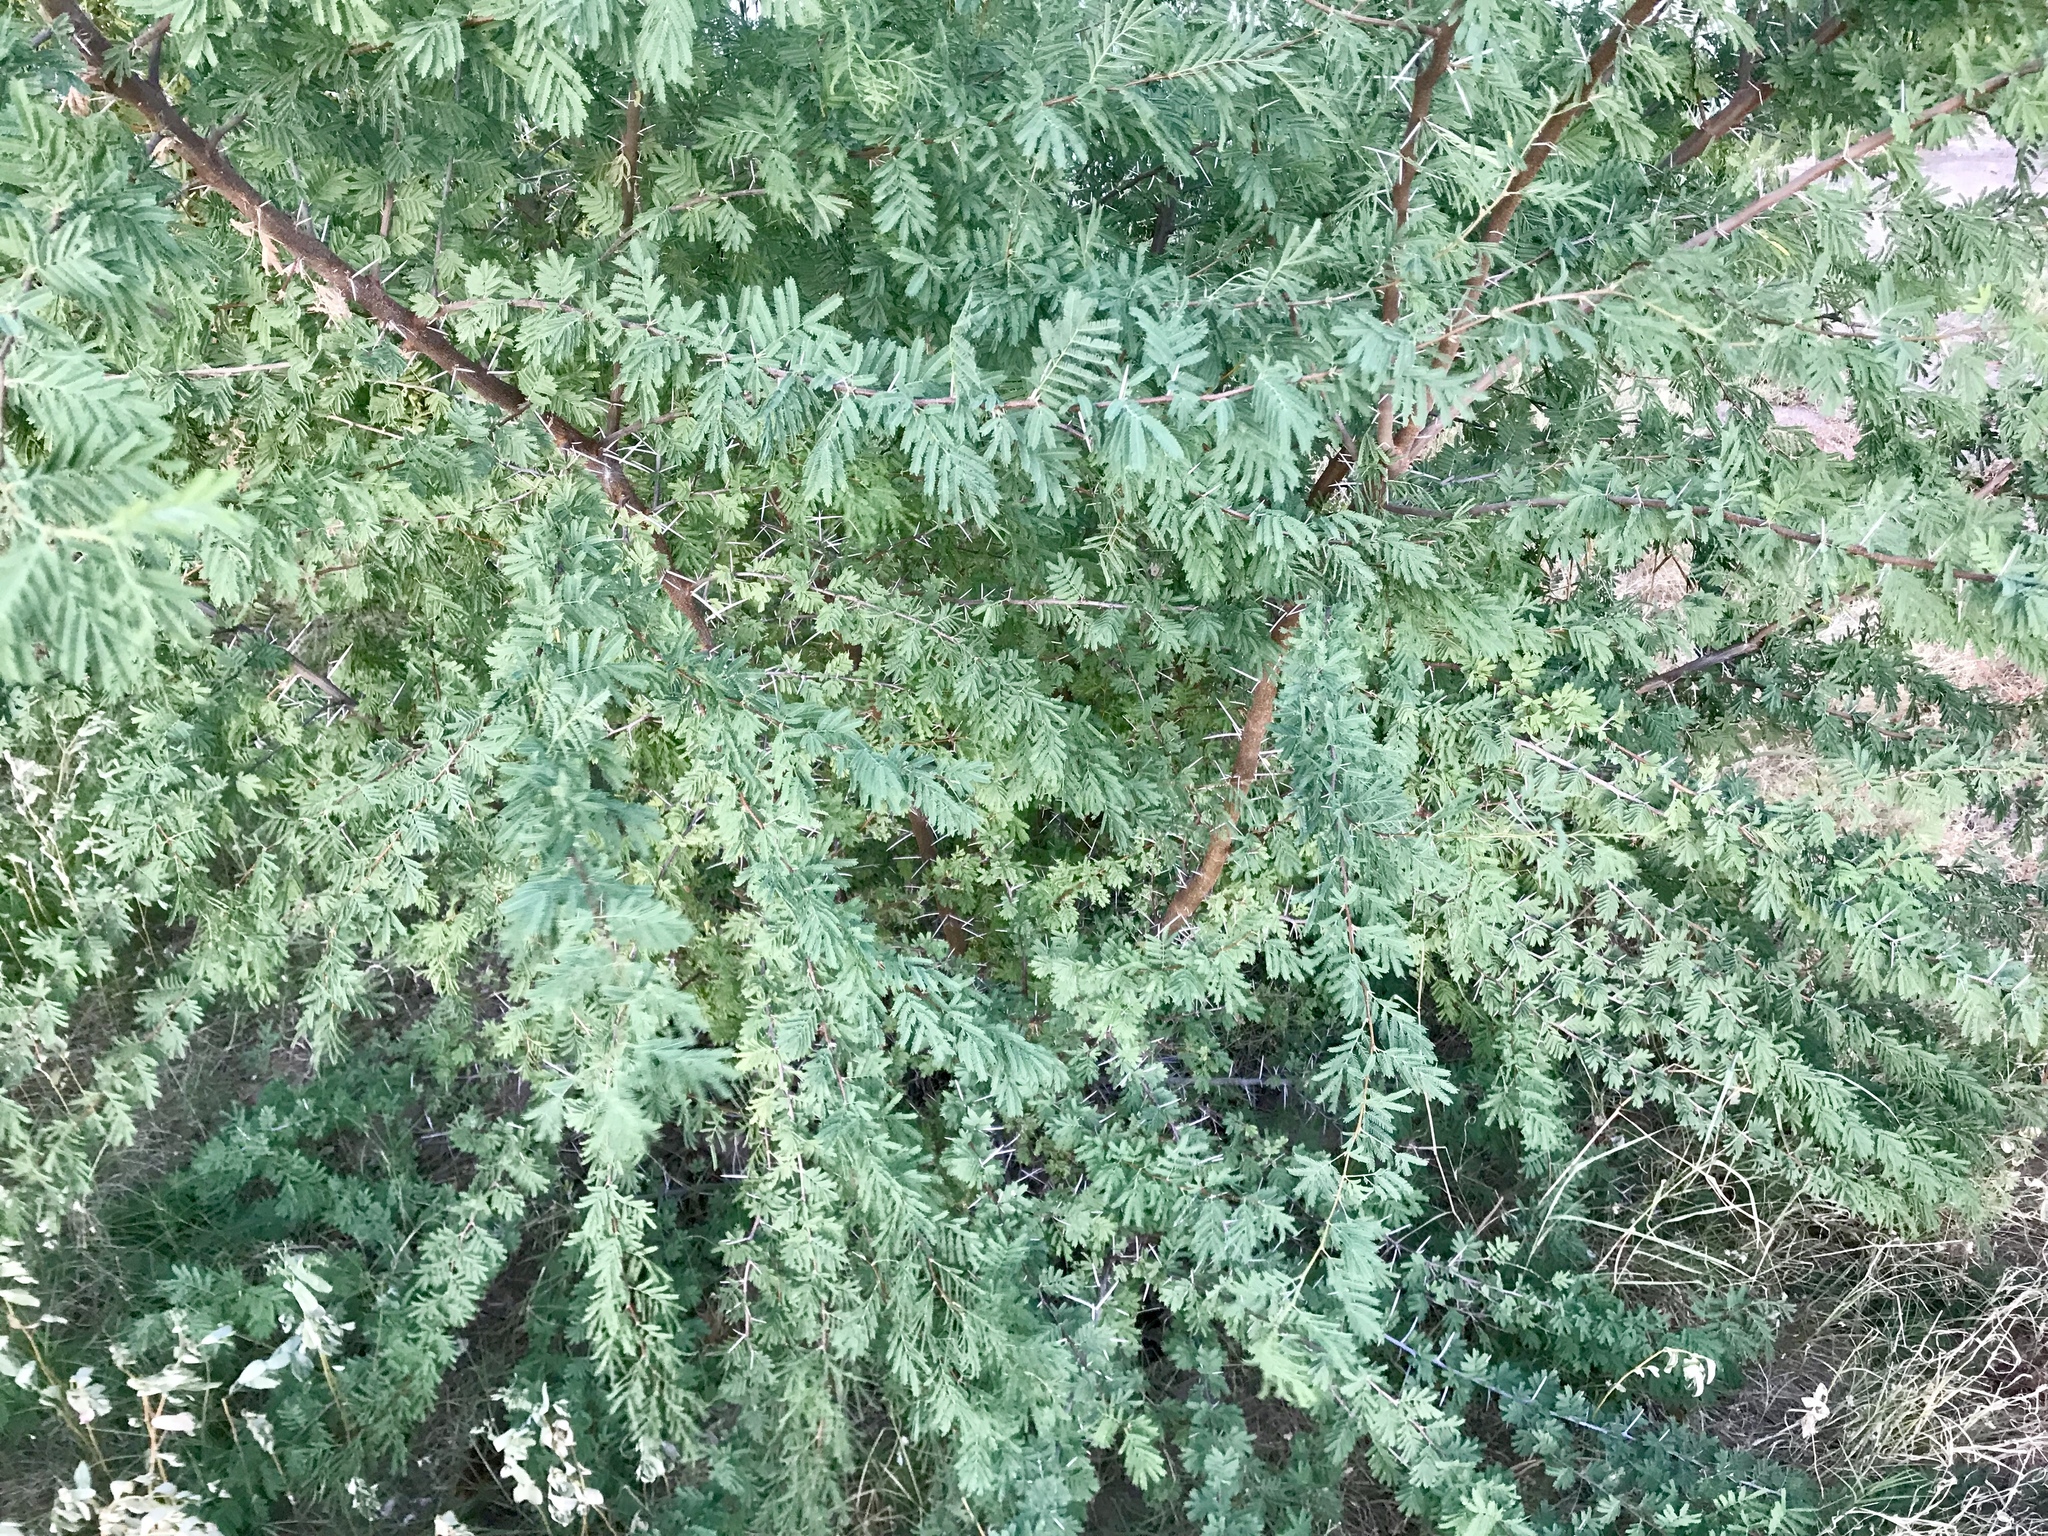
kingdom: Plantae
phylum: Tracheophyta
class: Magnoliopsida
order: Fabales
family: Fabaceae
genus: Vachellia
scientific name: Vachellia farnesiana
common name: Sweet acacia
